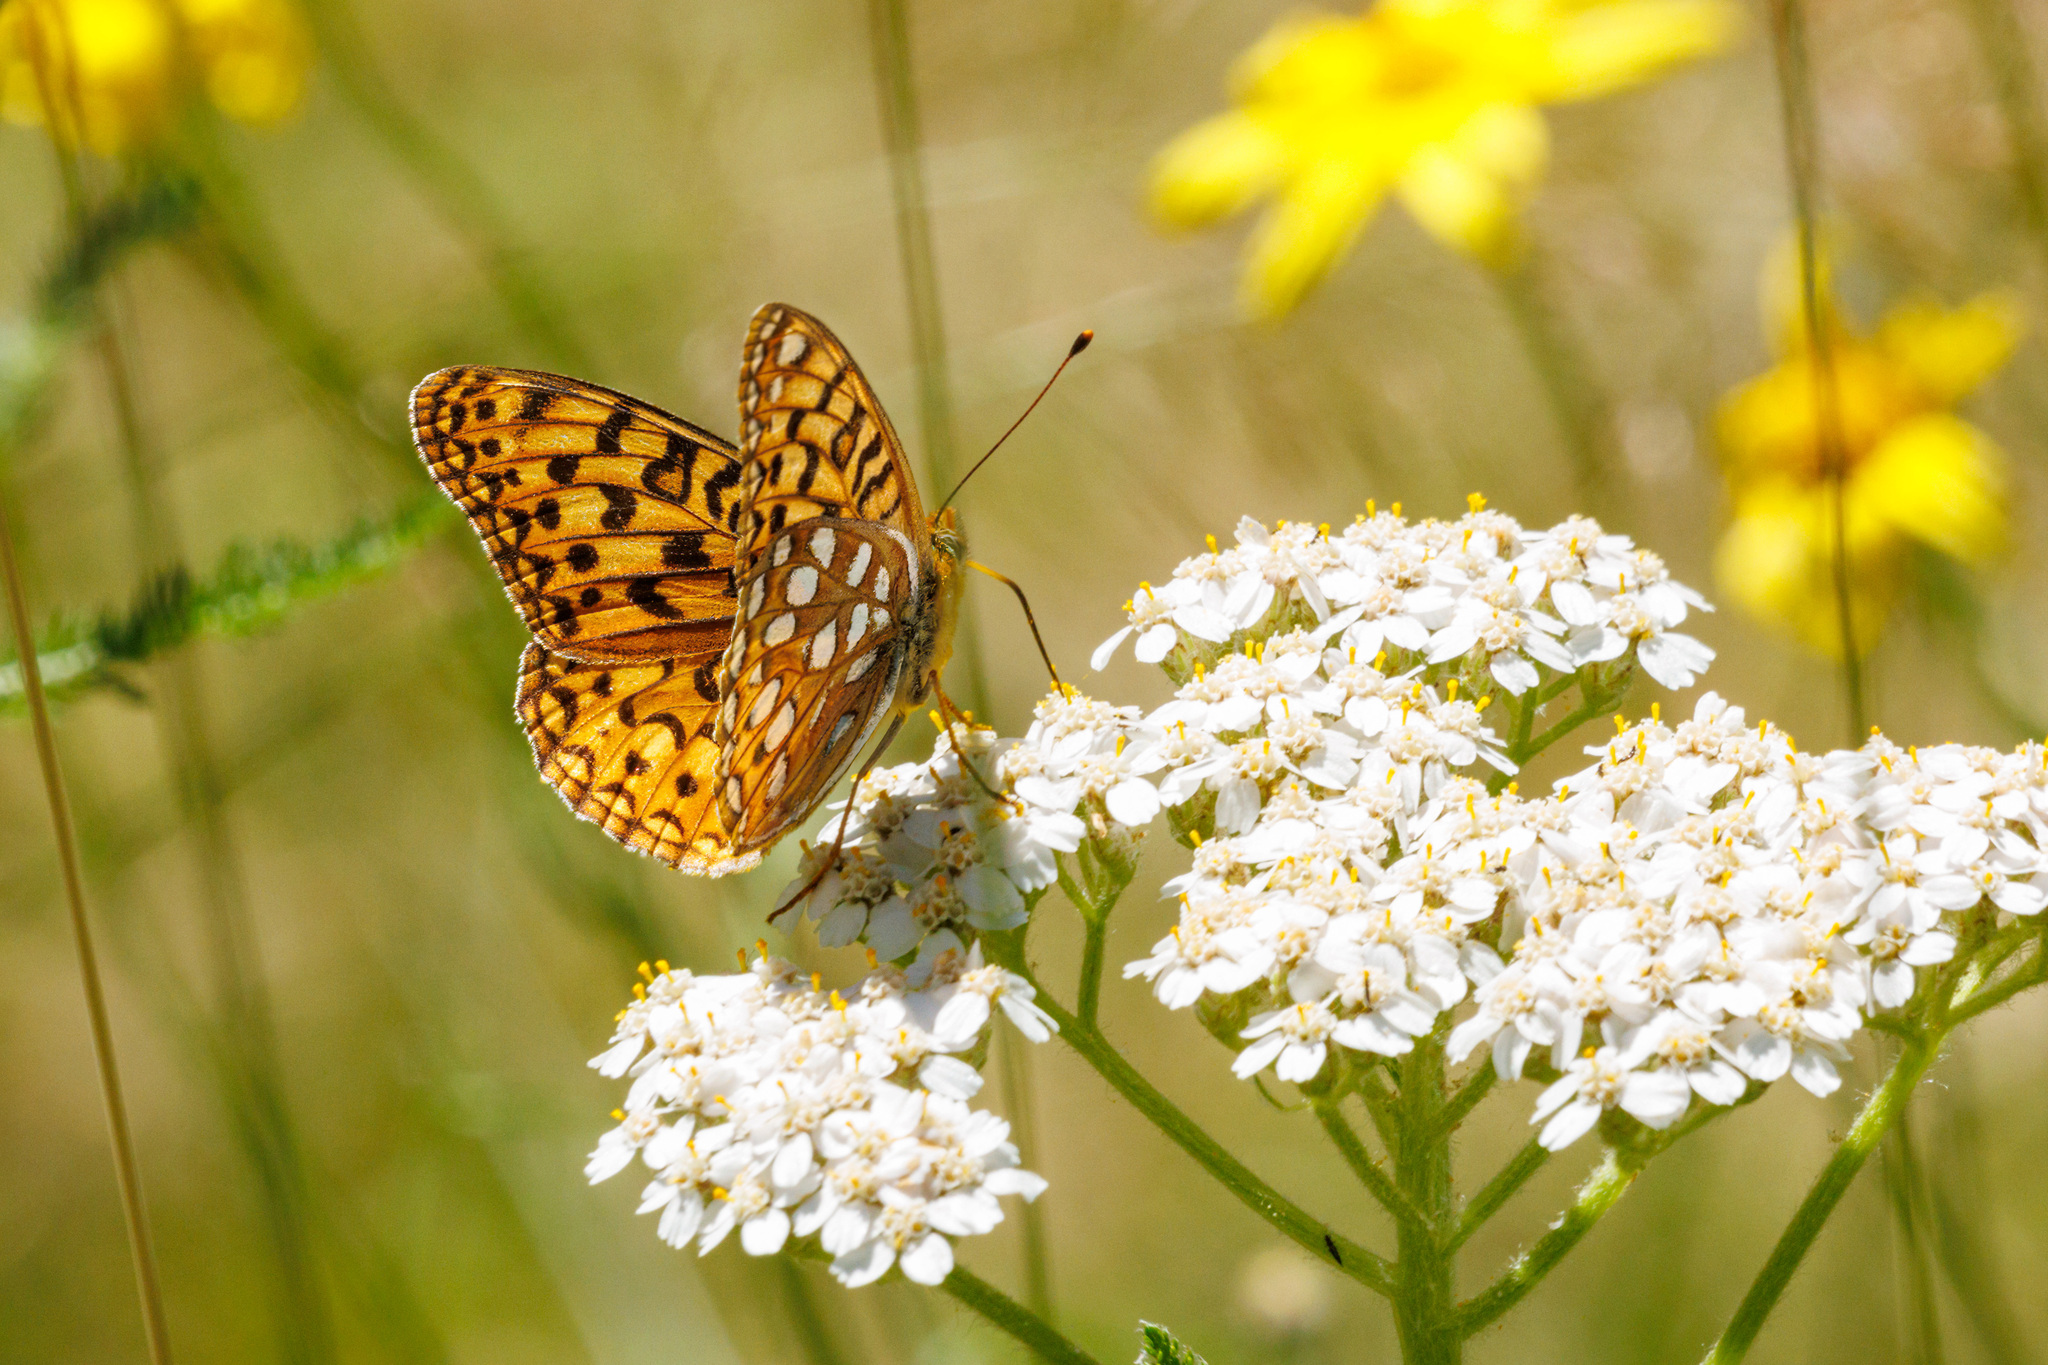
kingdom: Animalia
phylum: Arthropoda
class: Insecta
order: Lepidoptera
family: Nymphalidae
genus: Argynnis
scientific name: Argynnis coronis
